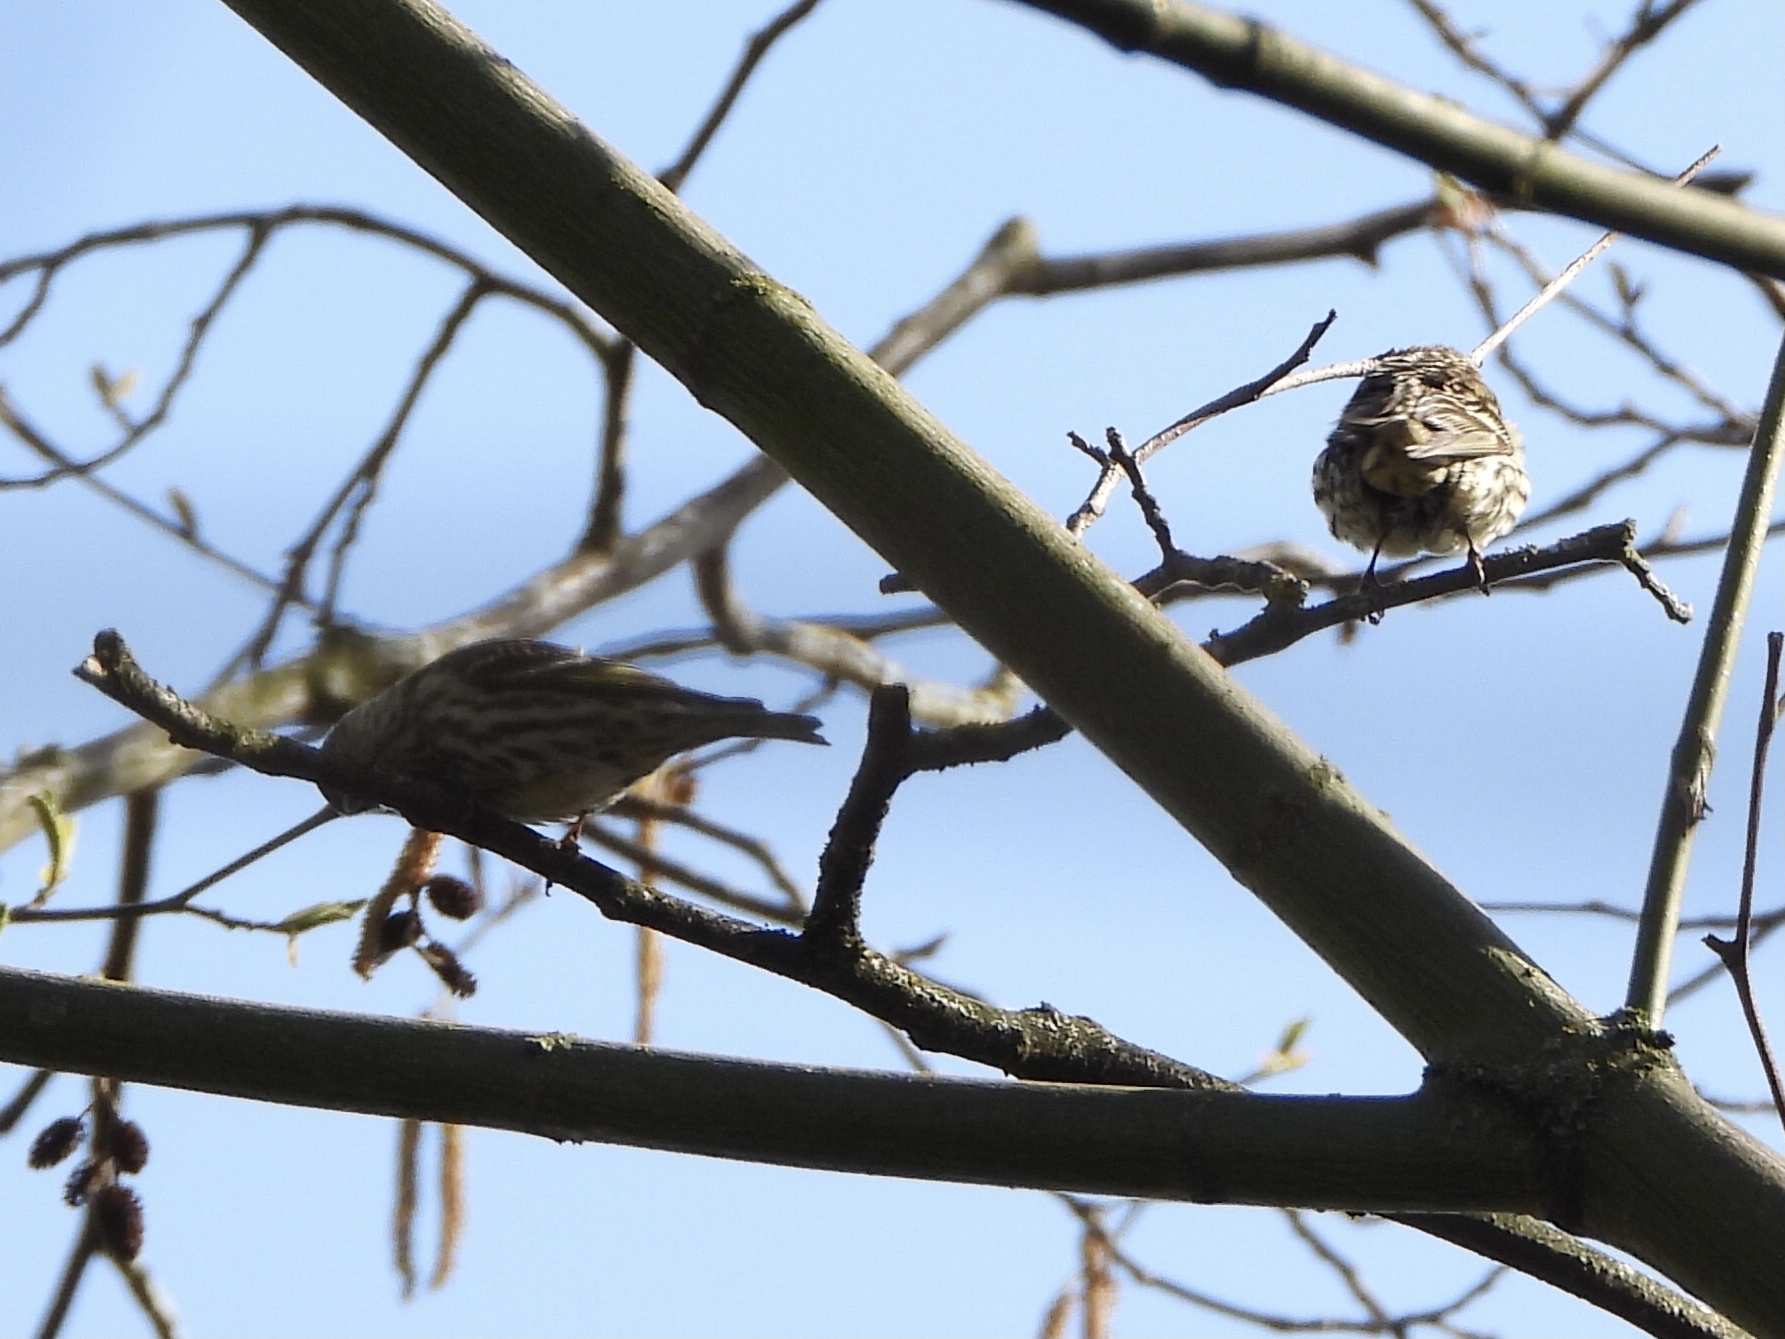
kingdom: Animalia
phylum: Chordata
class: Aves
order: Passeriformes
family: Fringillidae
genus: Spinus
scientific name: Spinus pinus
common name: Pine siskin
